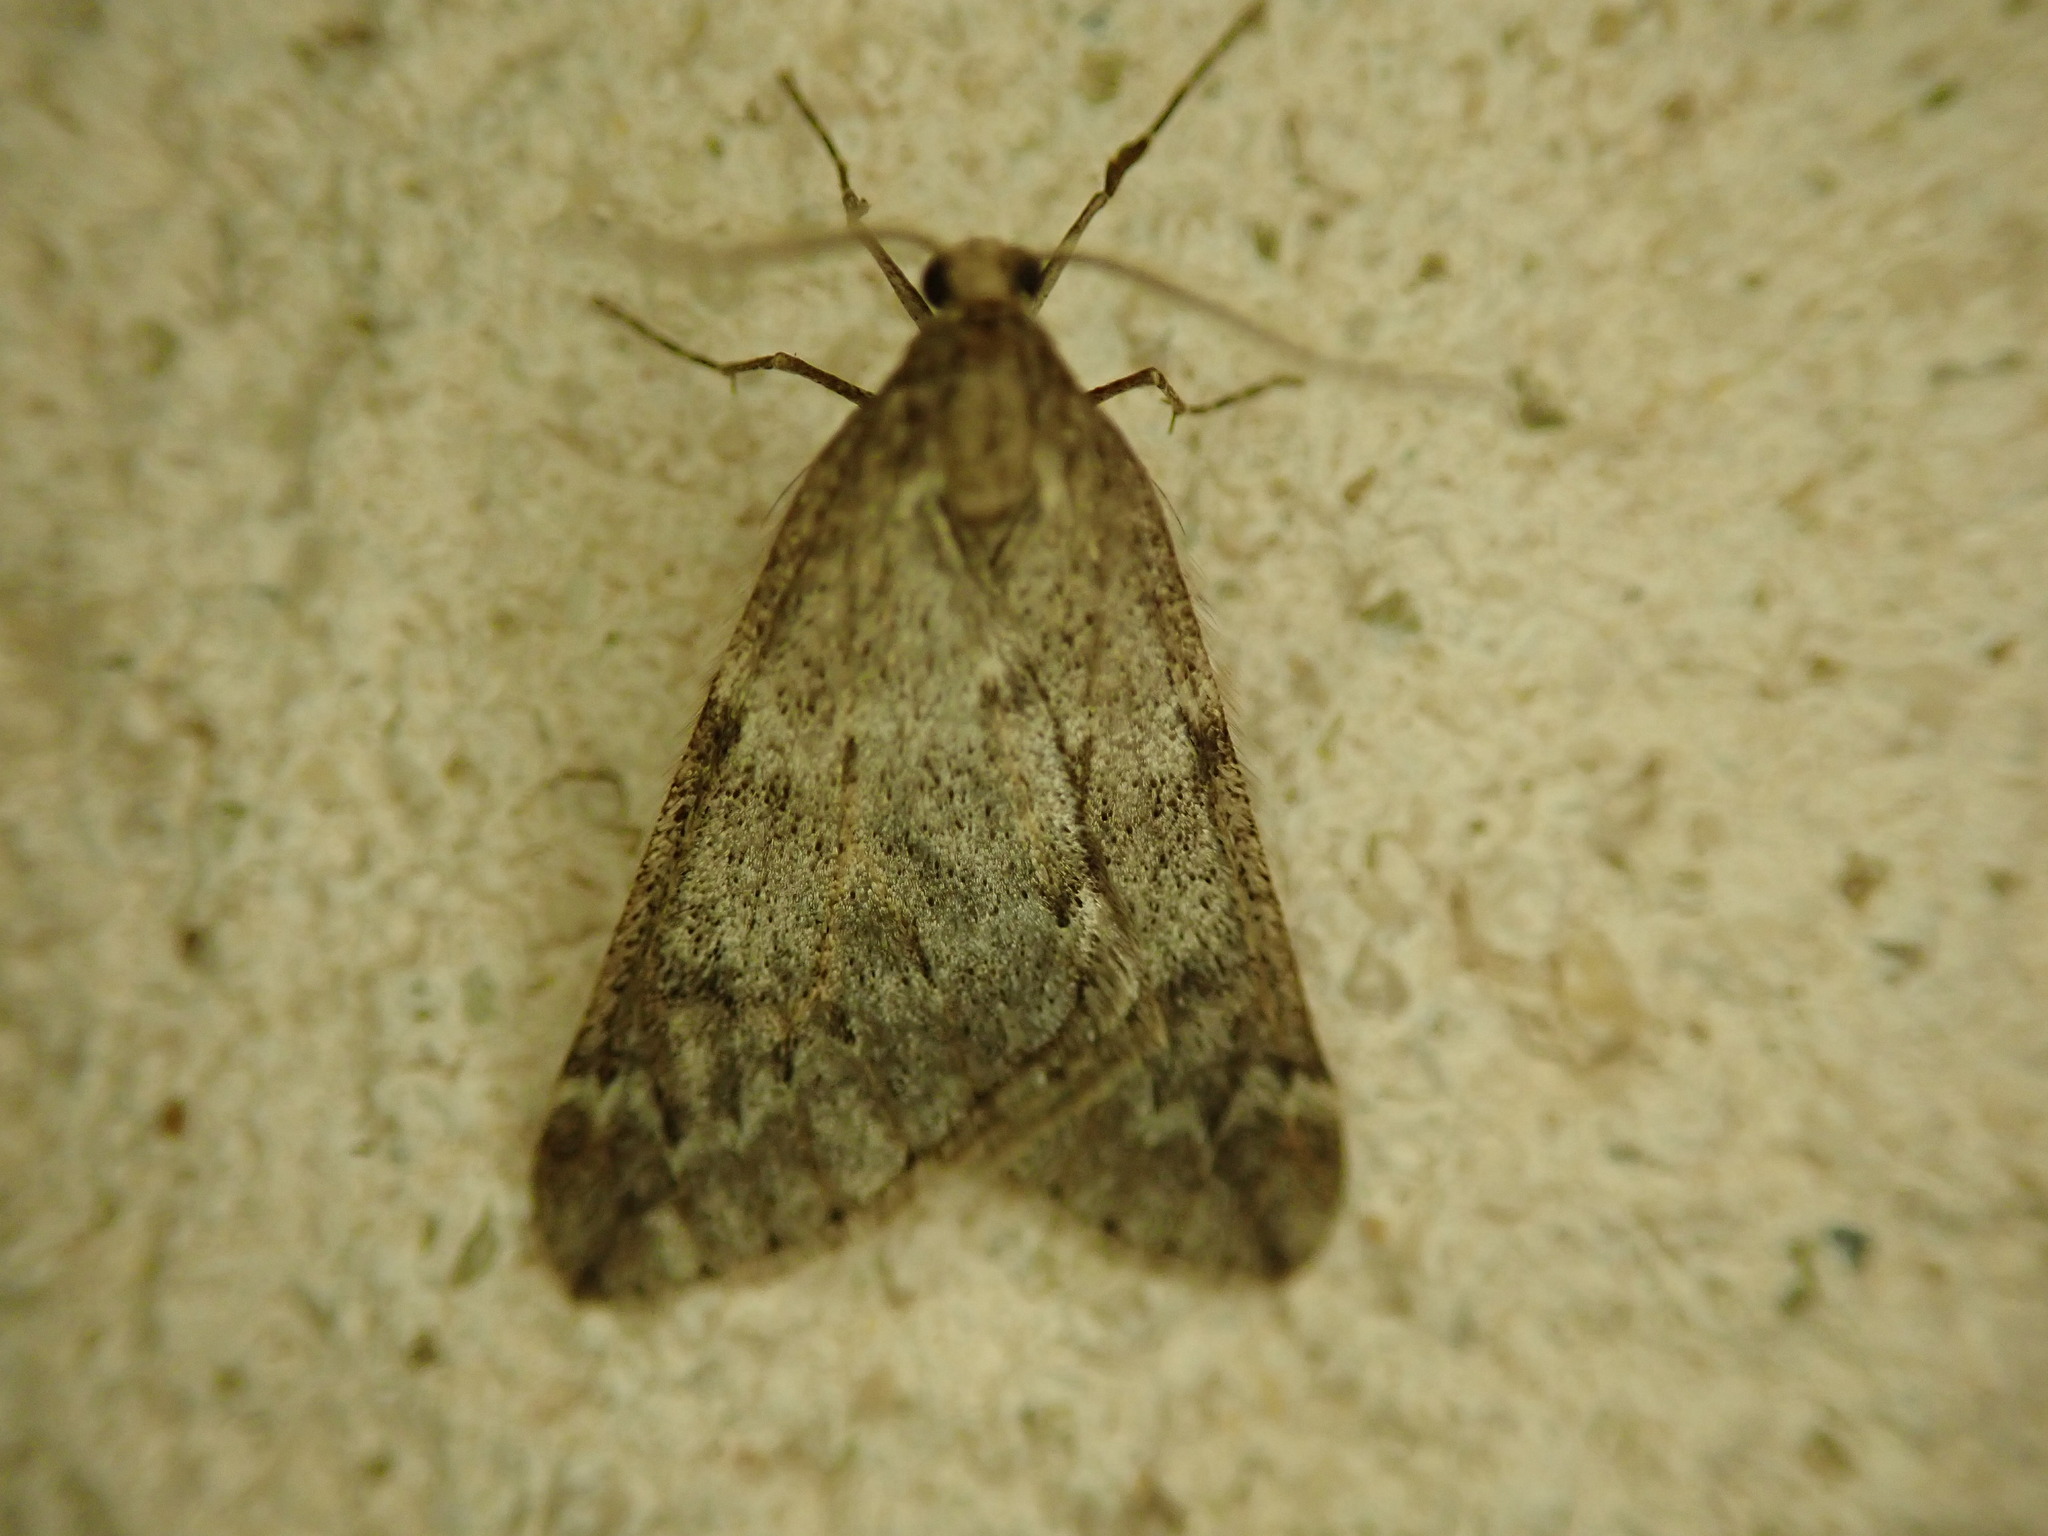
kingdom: Animalia
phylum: Arthropoda
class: Insecta
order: Lepidoptera
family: Geometridae
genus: Alsophila
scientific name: Alsophila aescularia
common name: March moth
